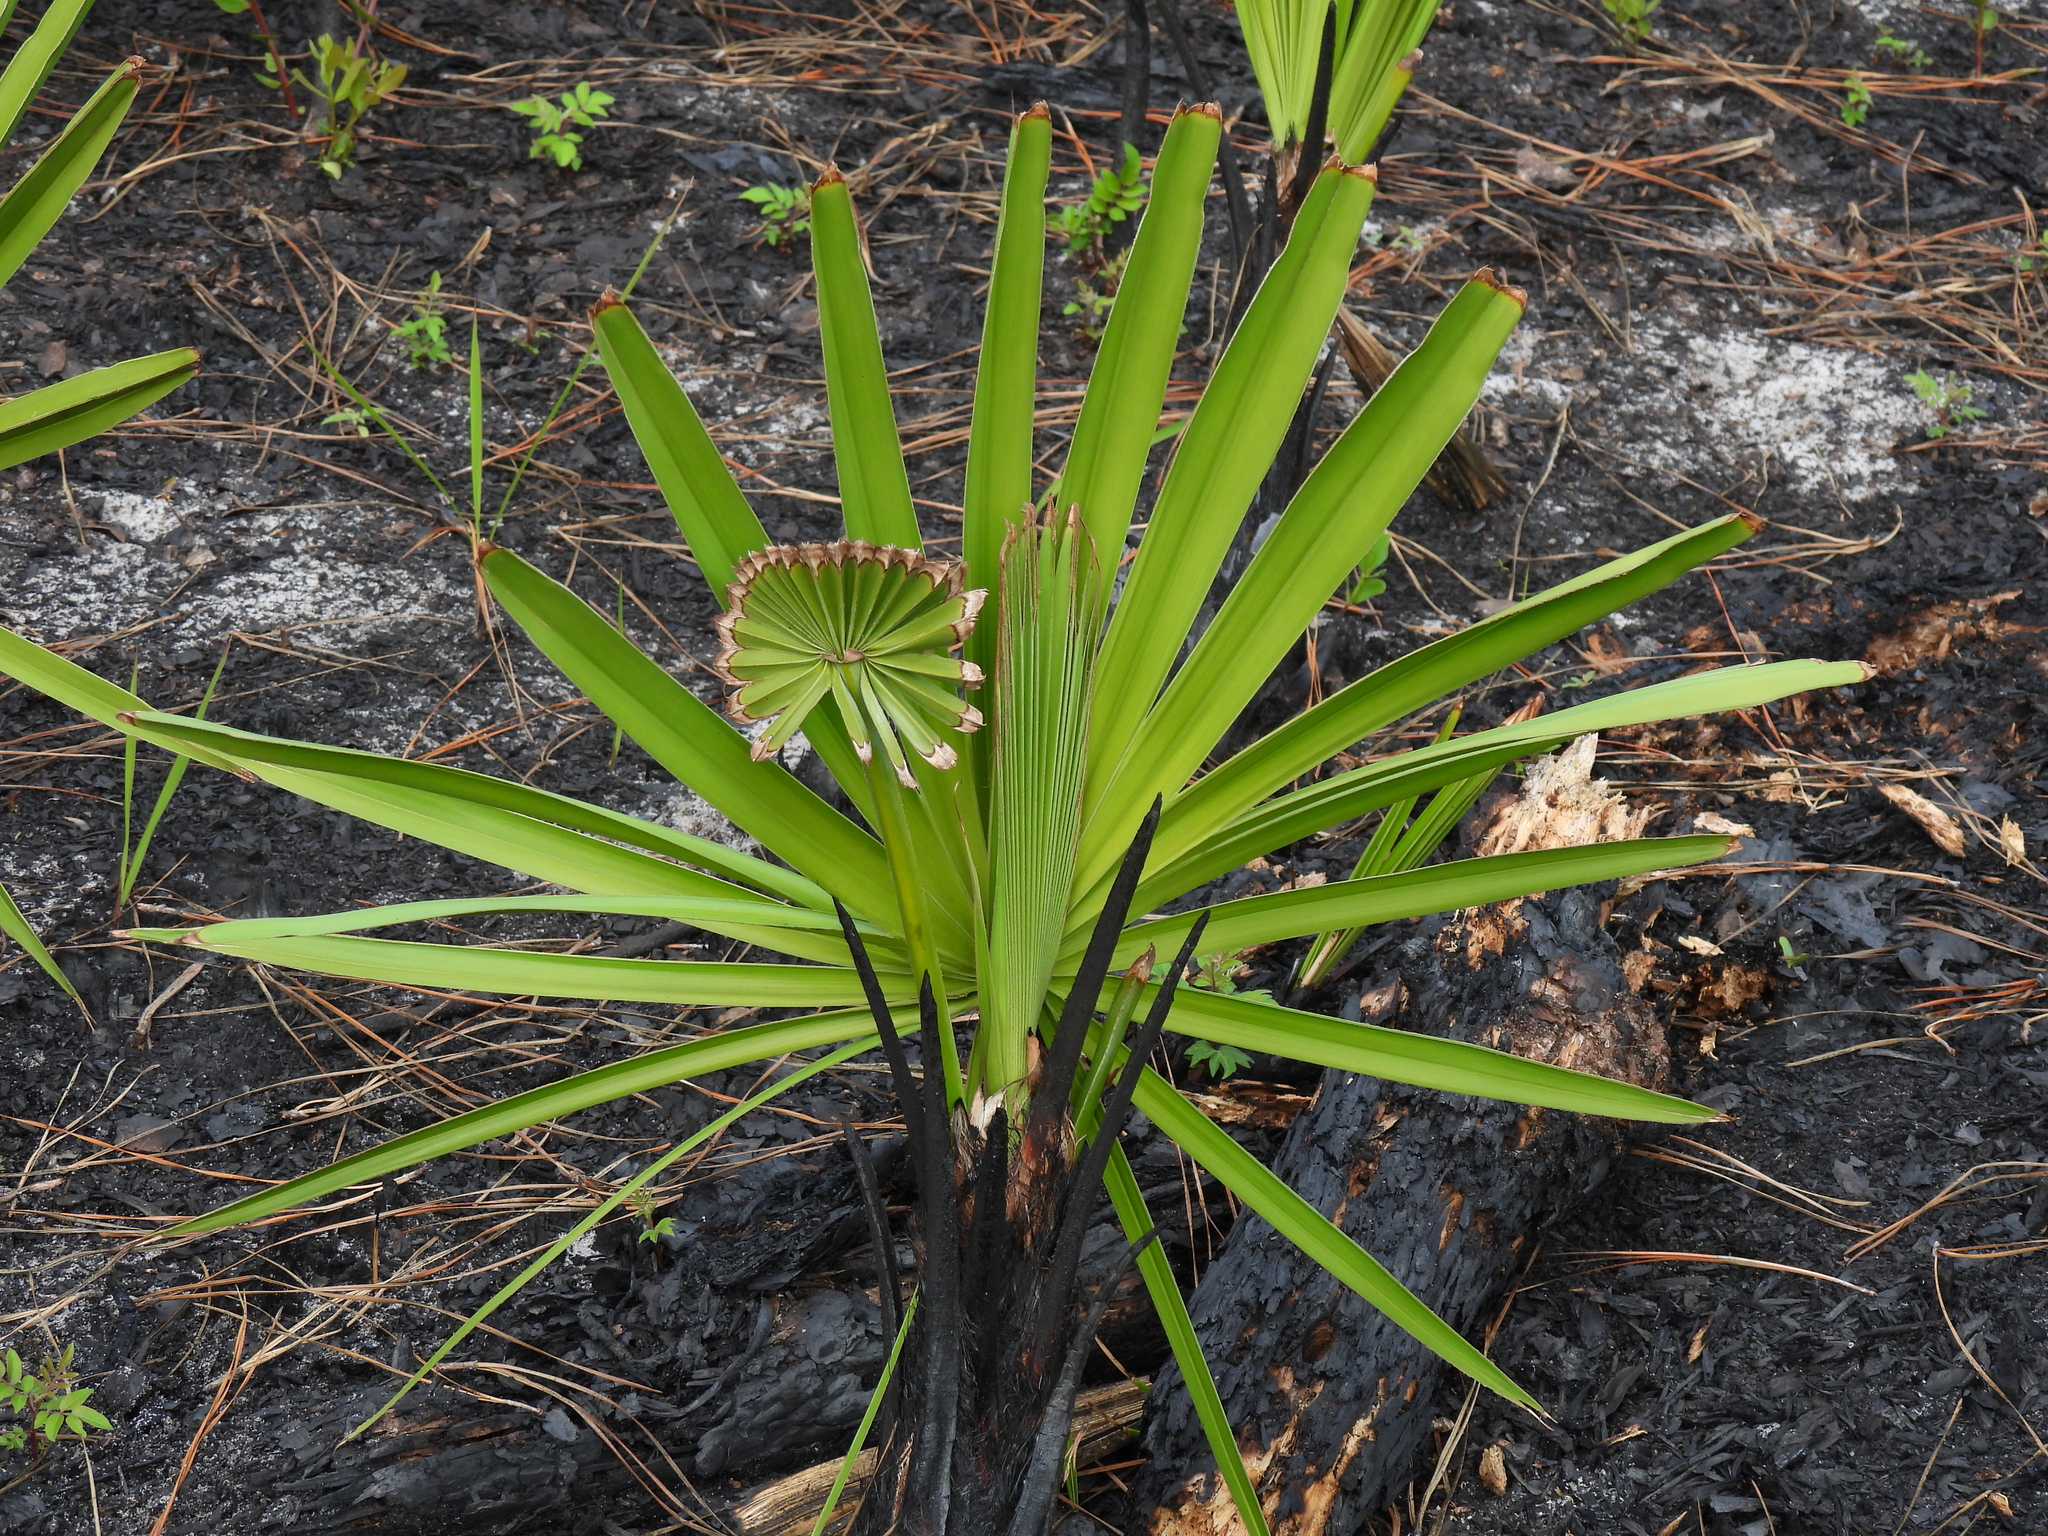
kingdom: Plantae
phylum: Tracheophyta
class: Liliopsida
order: Arecales
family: Arecaceae
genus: Serenoa
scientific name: Serenoa repens
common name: Saw-palmetto
